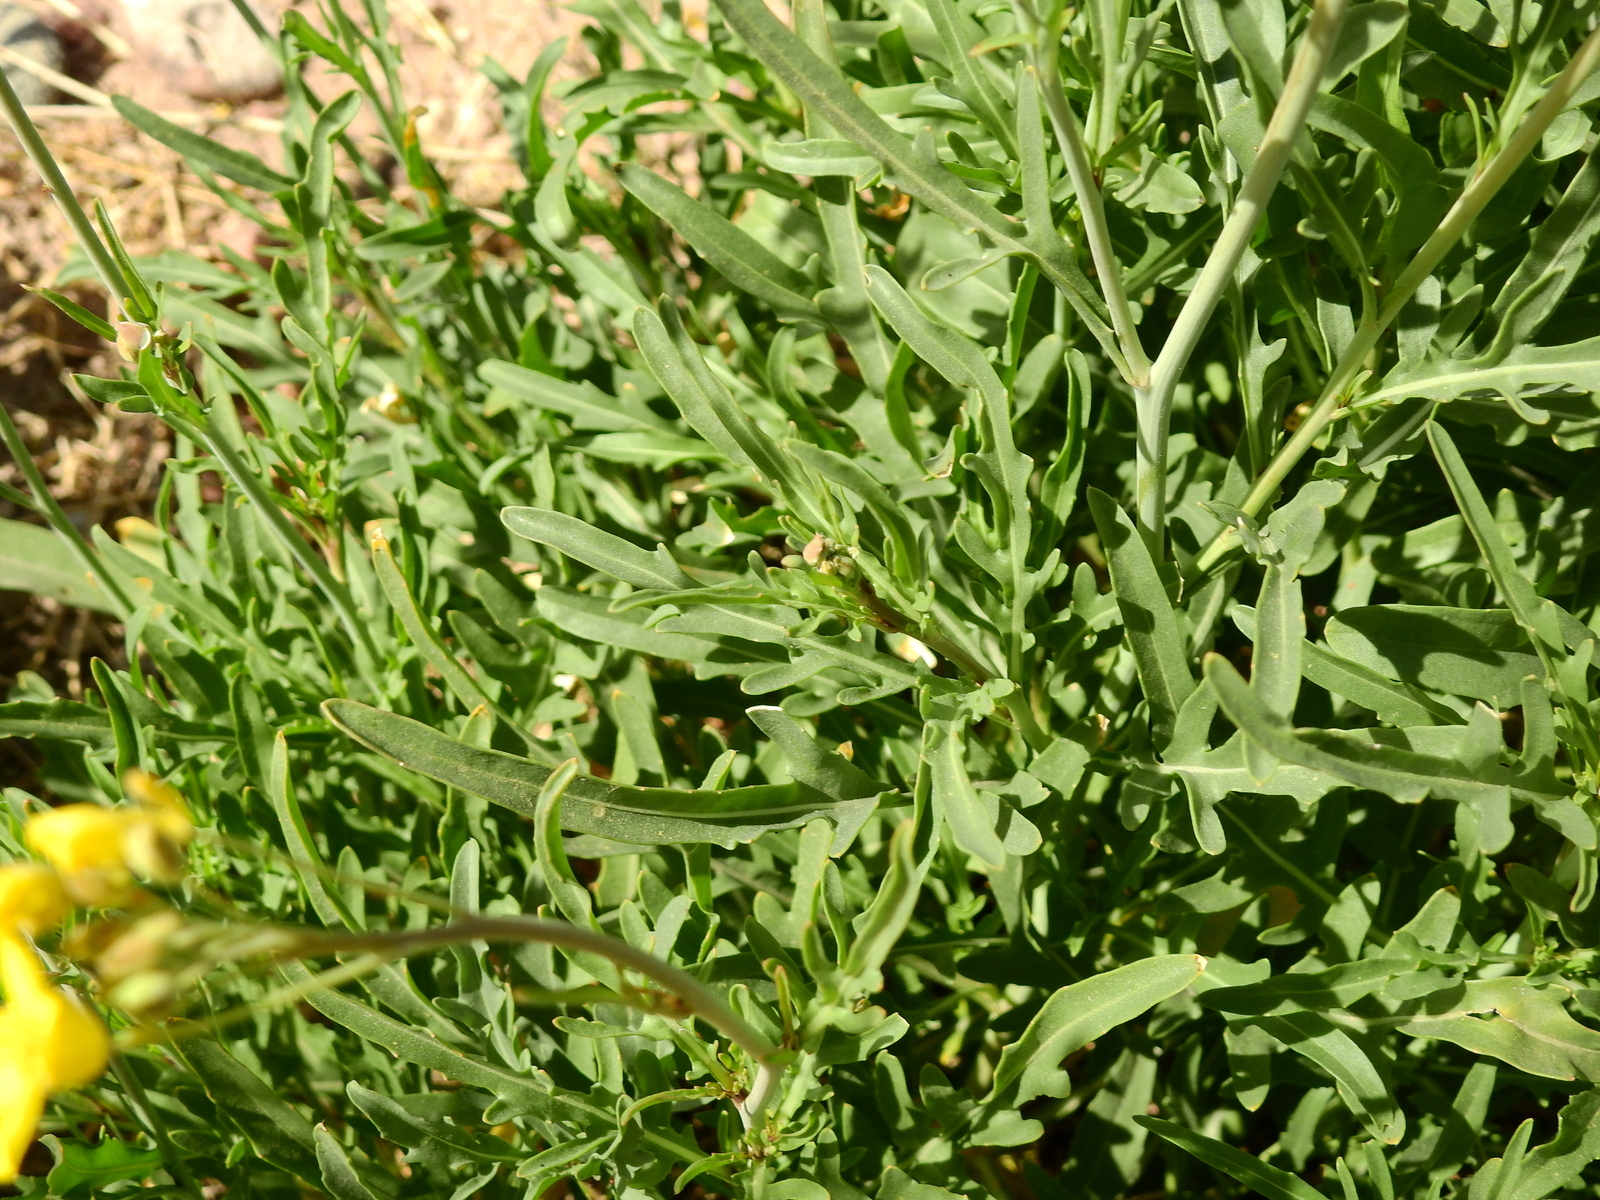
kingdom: Plantae
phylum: Tracheophyta
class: Magnoliopsida
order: Brassicales
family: Brassicaceae
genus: Diplotaxis
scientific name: Diplotaxis tenuifolia
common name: Perennial wall-rocket
